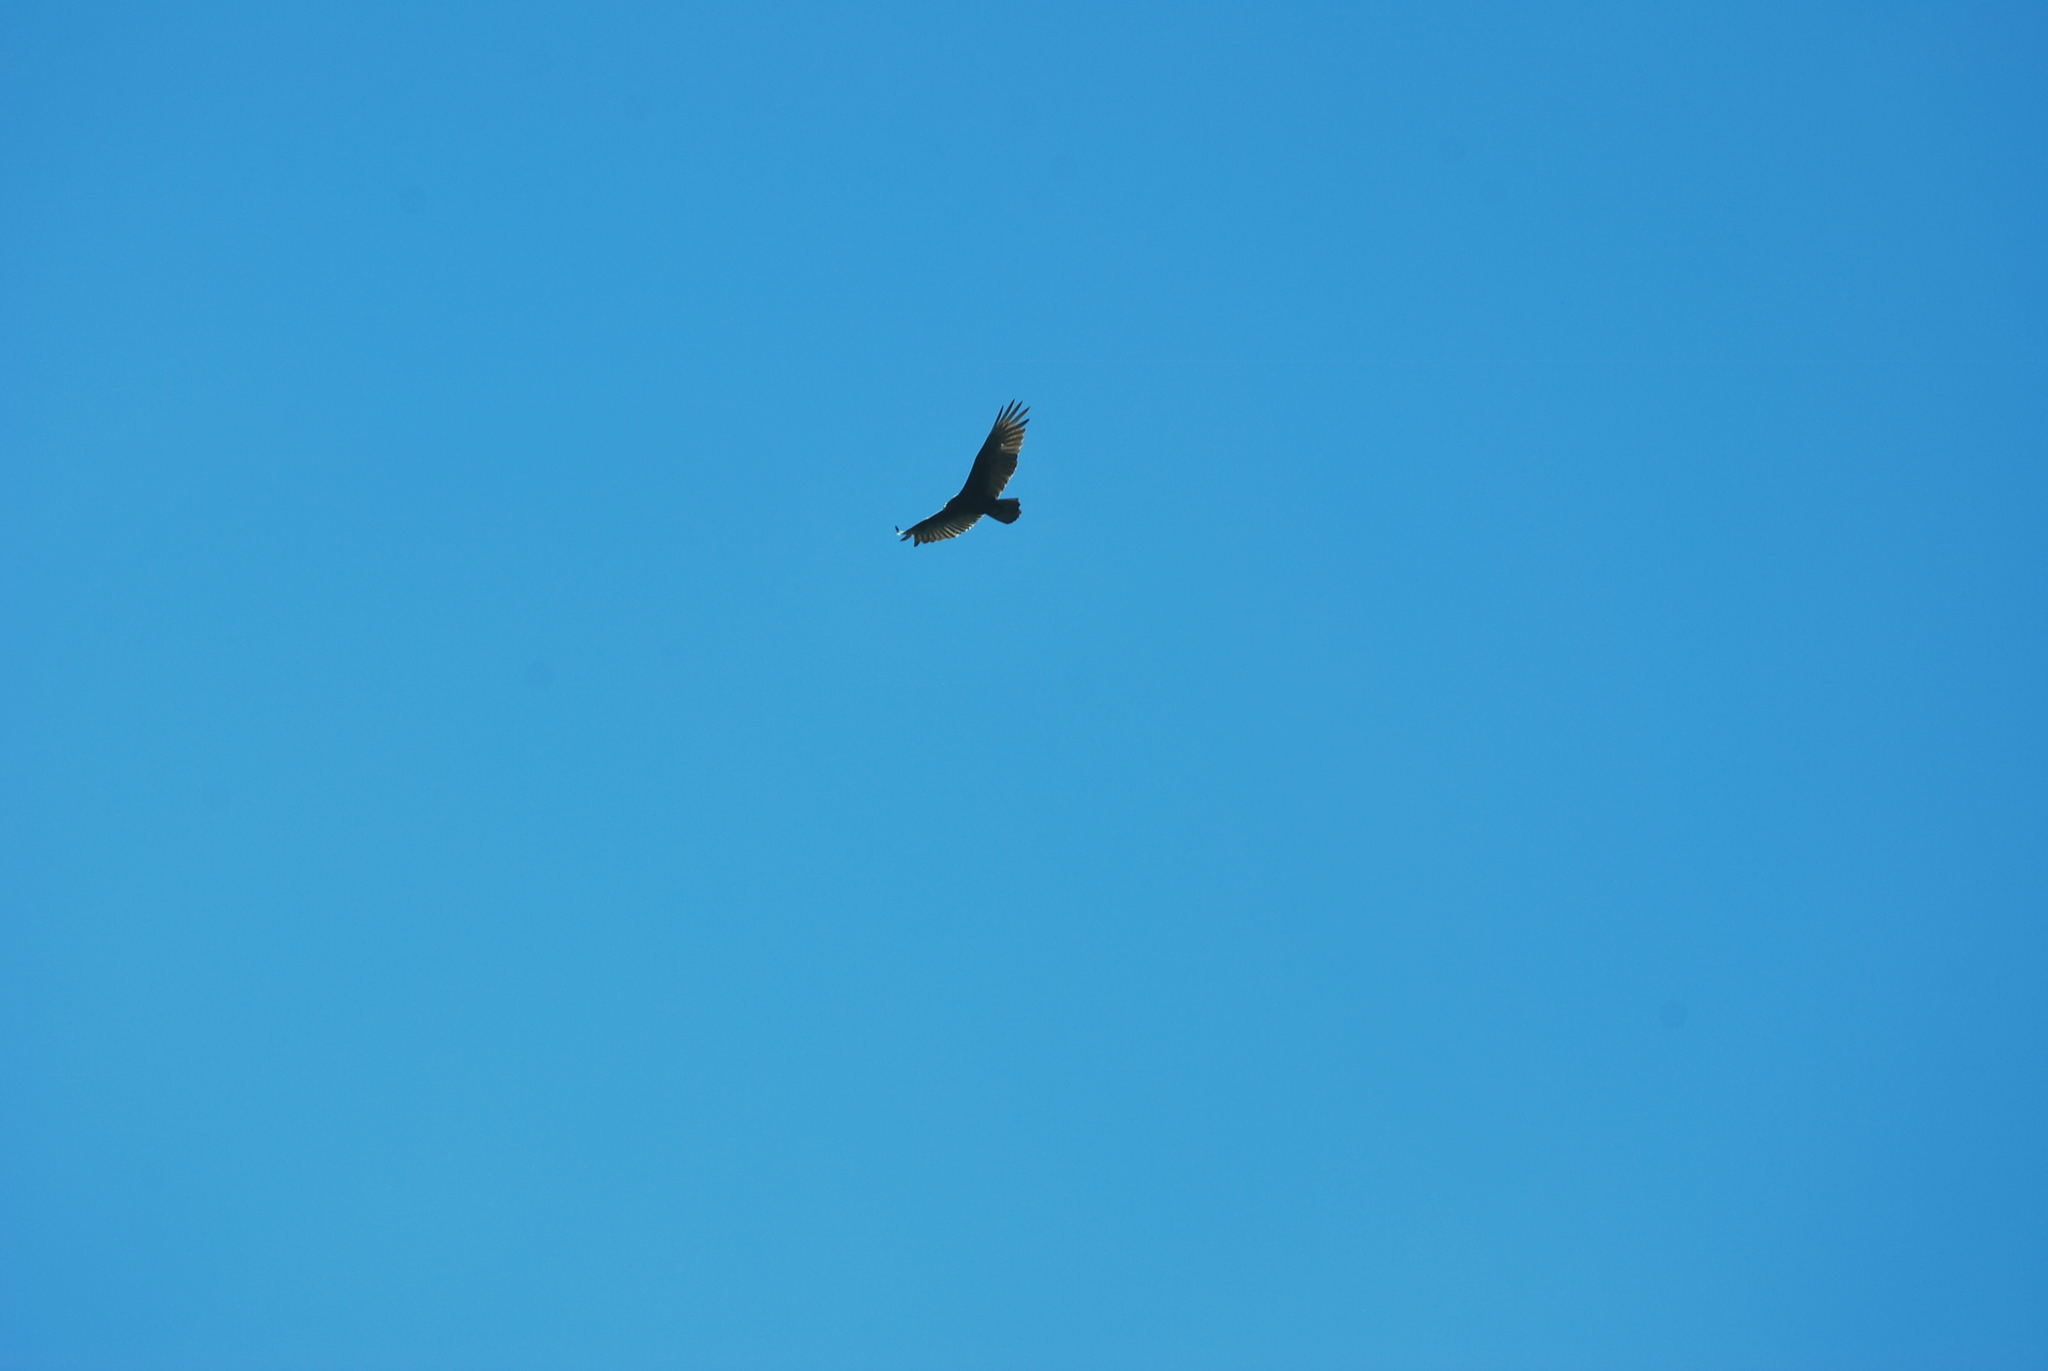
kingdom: Animalia
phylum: Chordata
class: Aves
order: Accipitriformes
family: Cathartidae
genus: Cathartes
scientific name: Cathartes aura
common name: Turkey vulture
